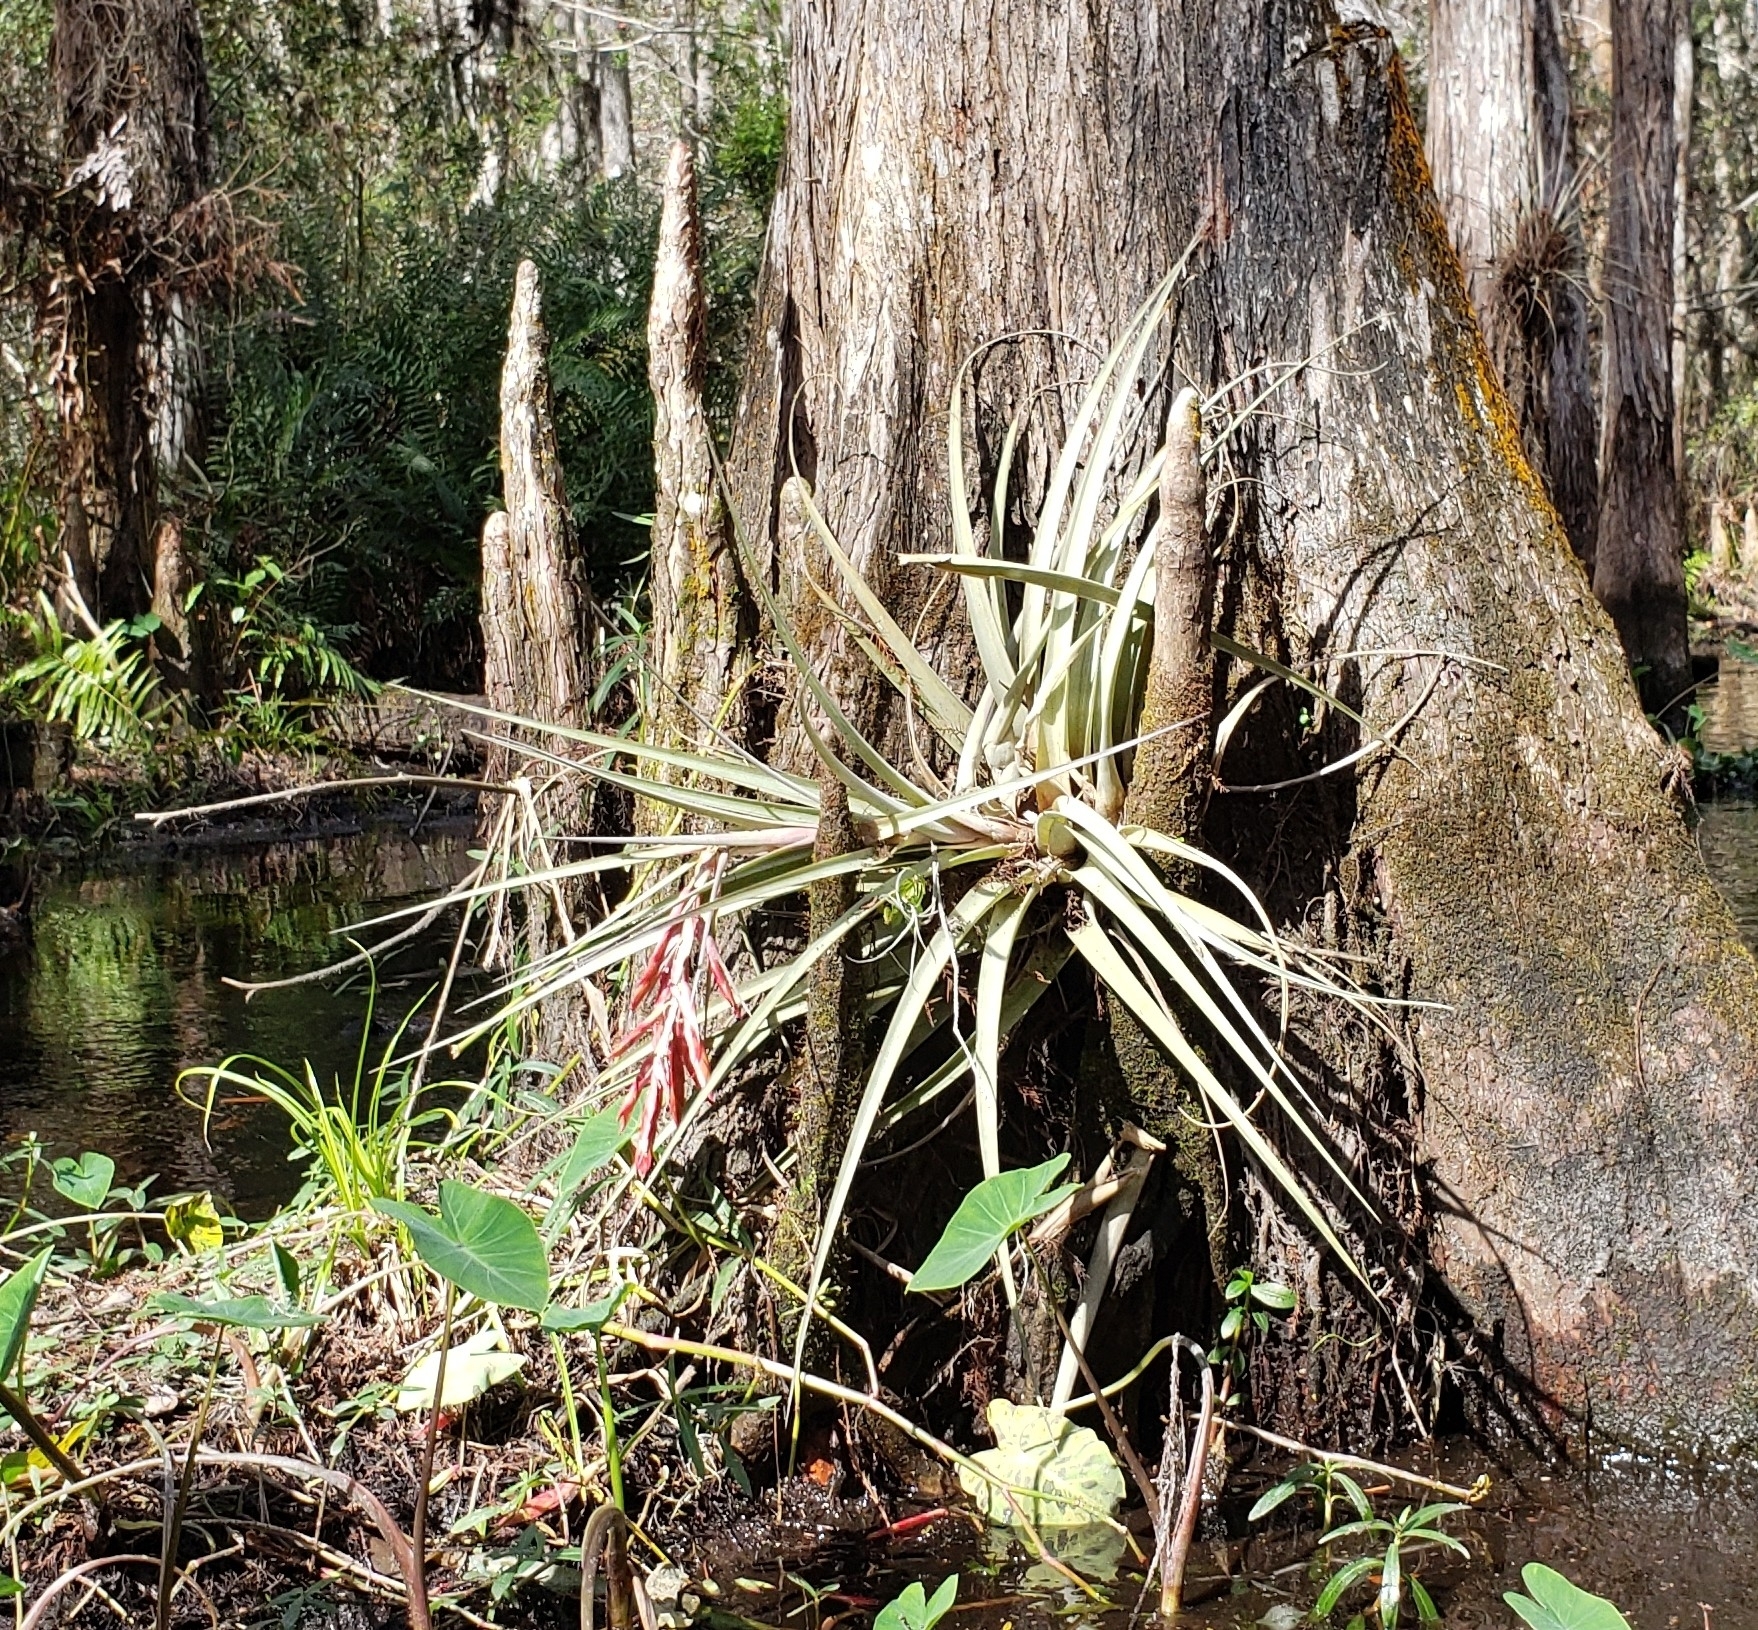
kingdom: Plantae
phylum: Tracheophyta
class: Liliopsida
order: Poales
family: Bromeliaceae
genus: Tillandsia
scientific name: Tillandsia fasciculata
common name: Giant airplant
